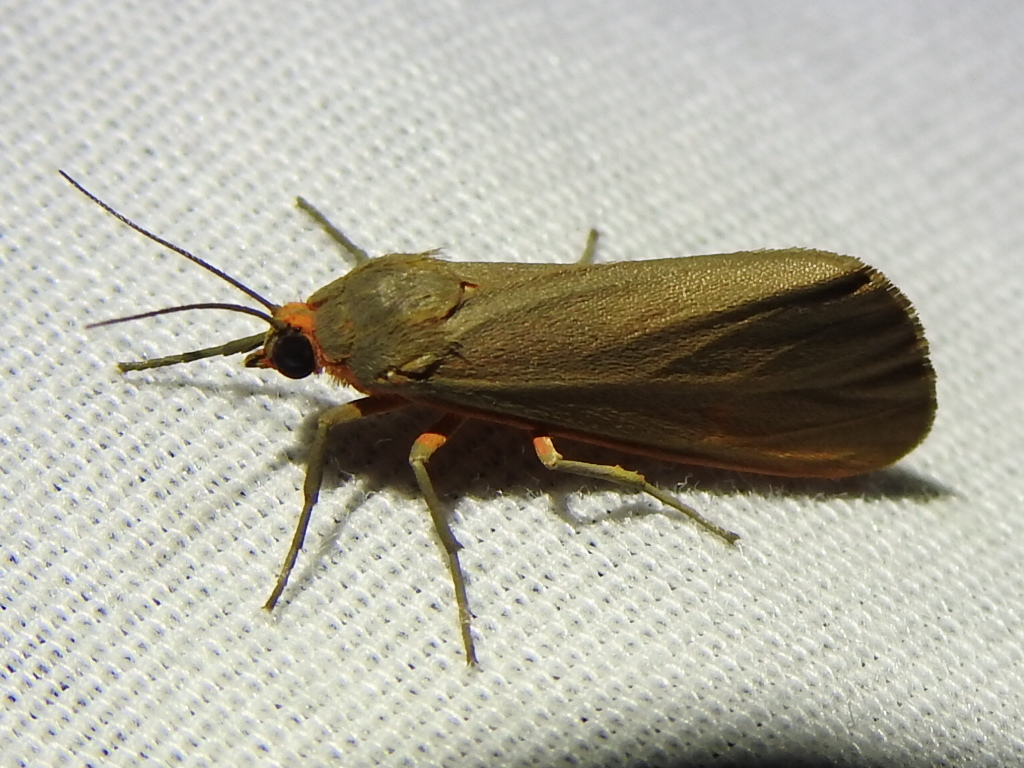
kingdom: Animalia
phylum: Arthropoda
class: Insecta
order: Lepidoptera
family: Erebidae
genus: Virbia
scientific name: Virbia costata
